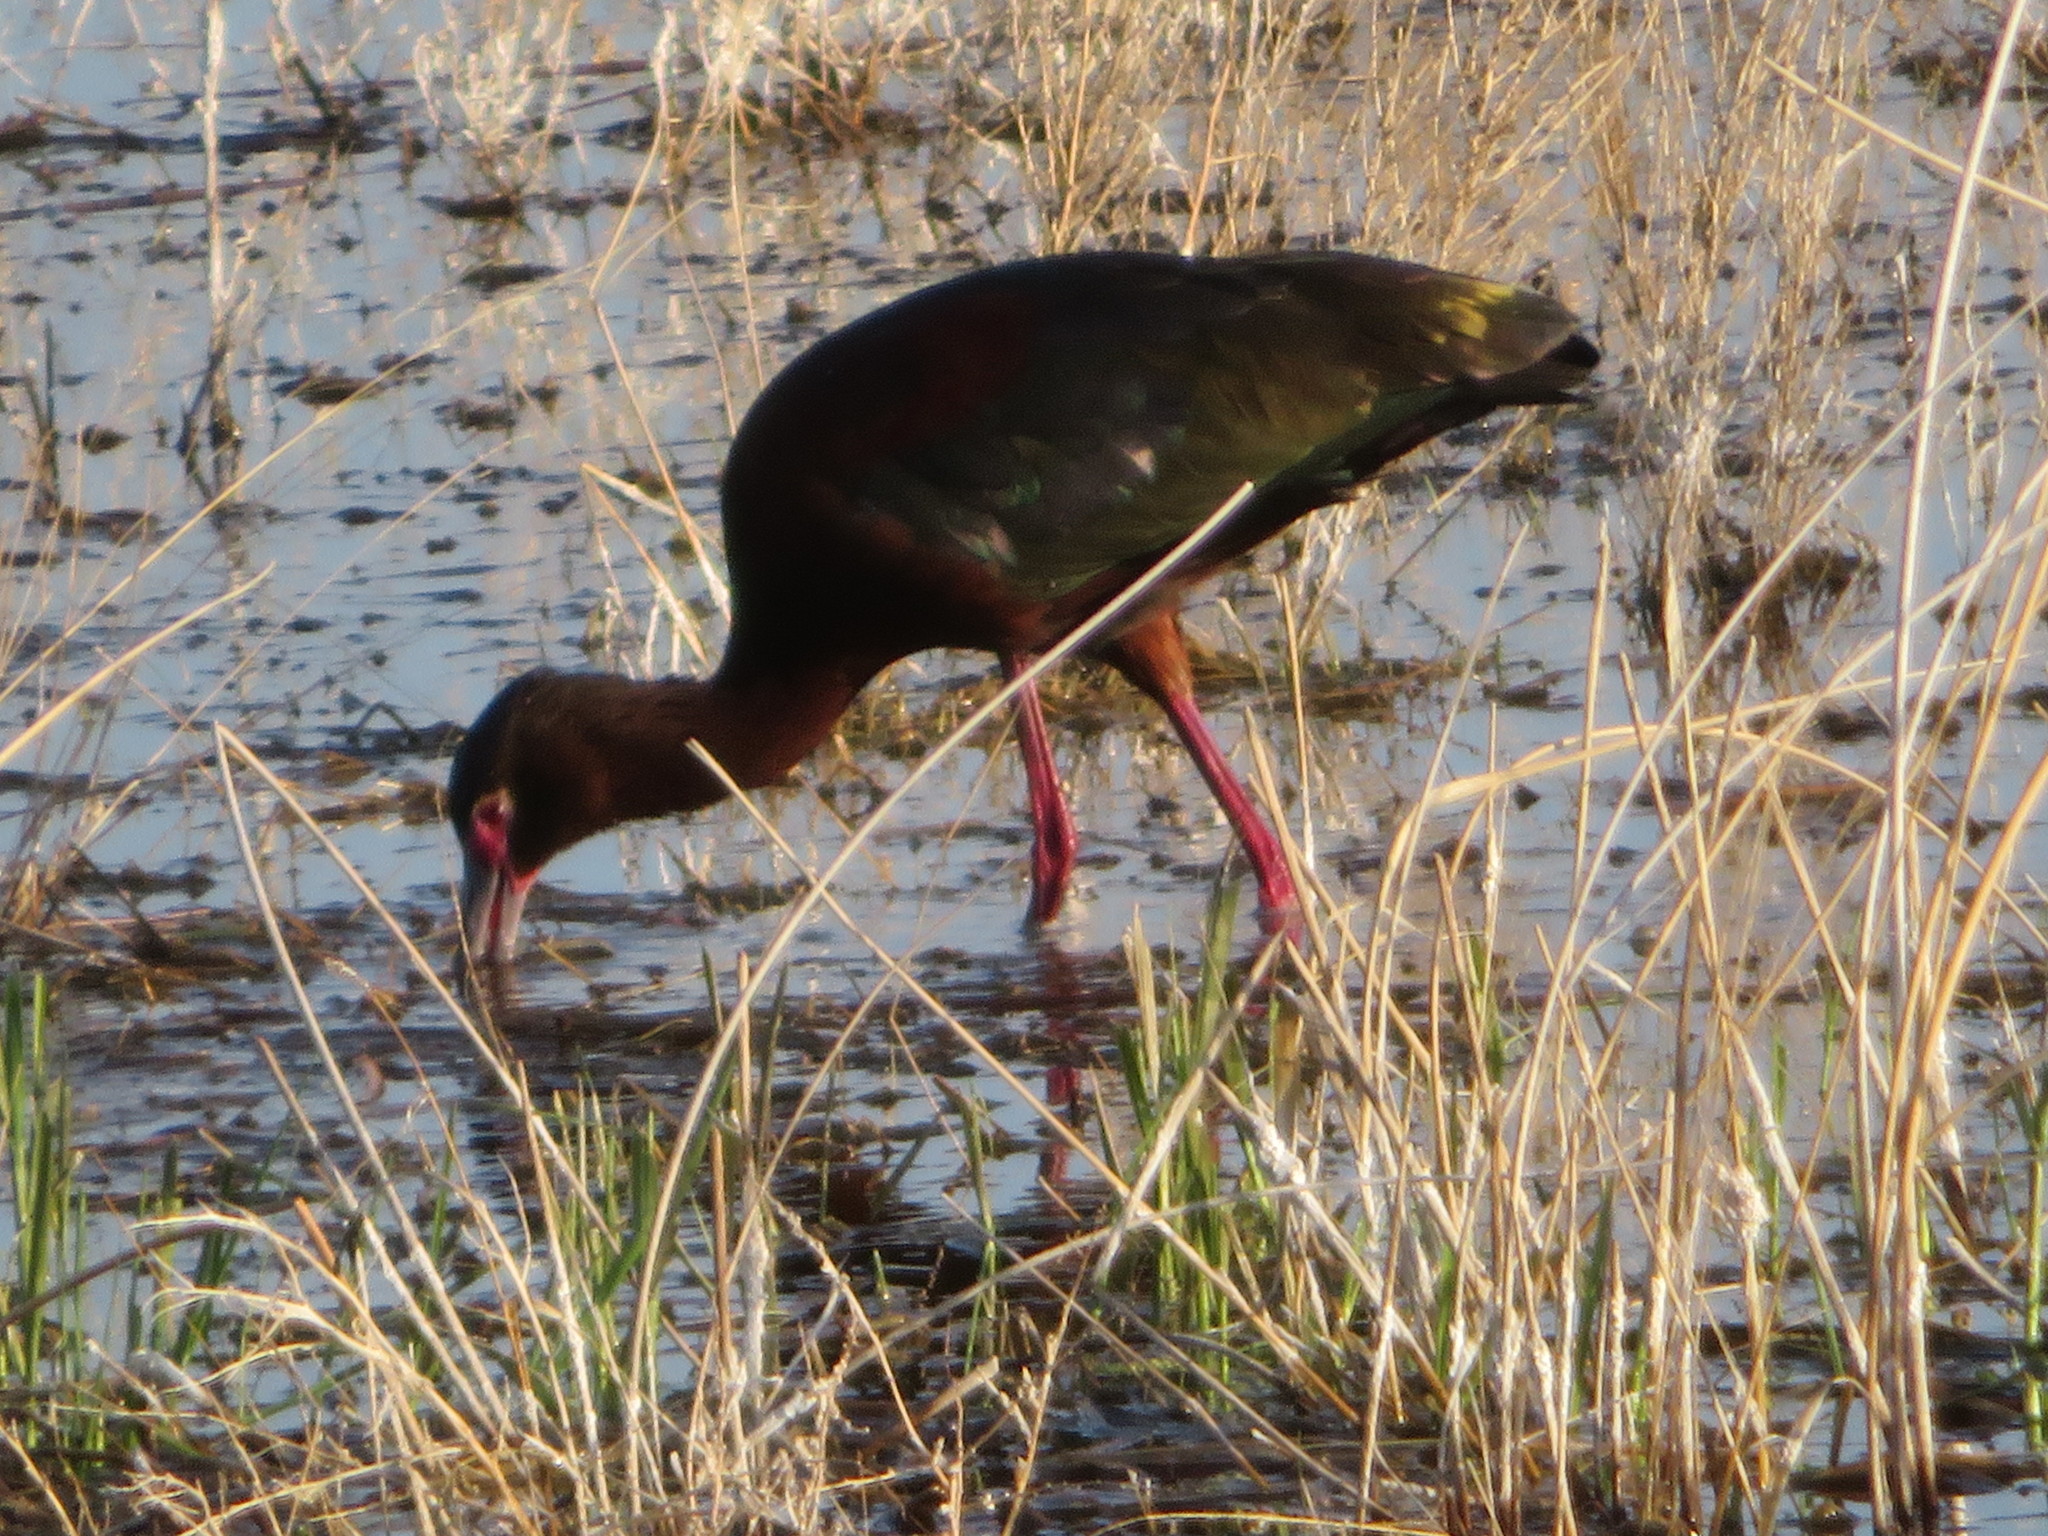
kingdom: Animalia
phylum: Chordata
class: Aves
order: Pelecaniformes
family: Threskiornithidae
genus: Plegadis
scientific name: Plegadis chihi
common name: White-faced ibis
